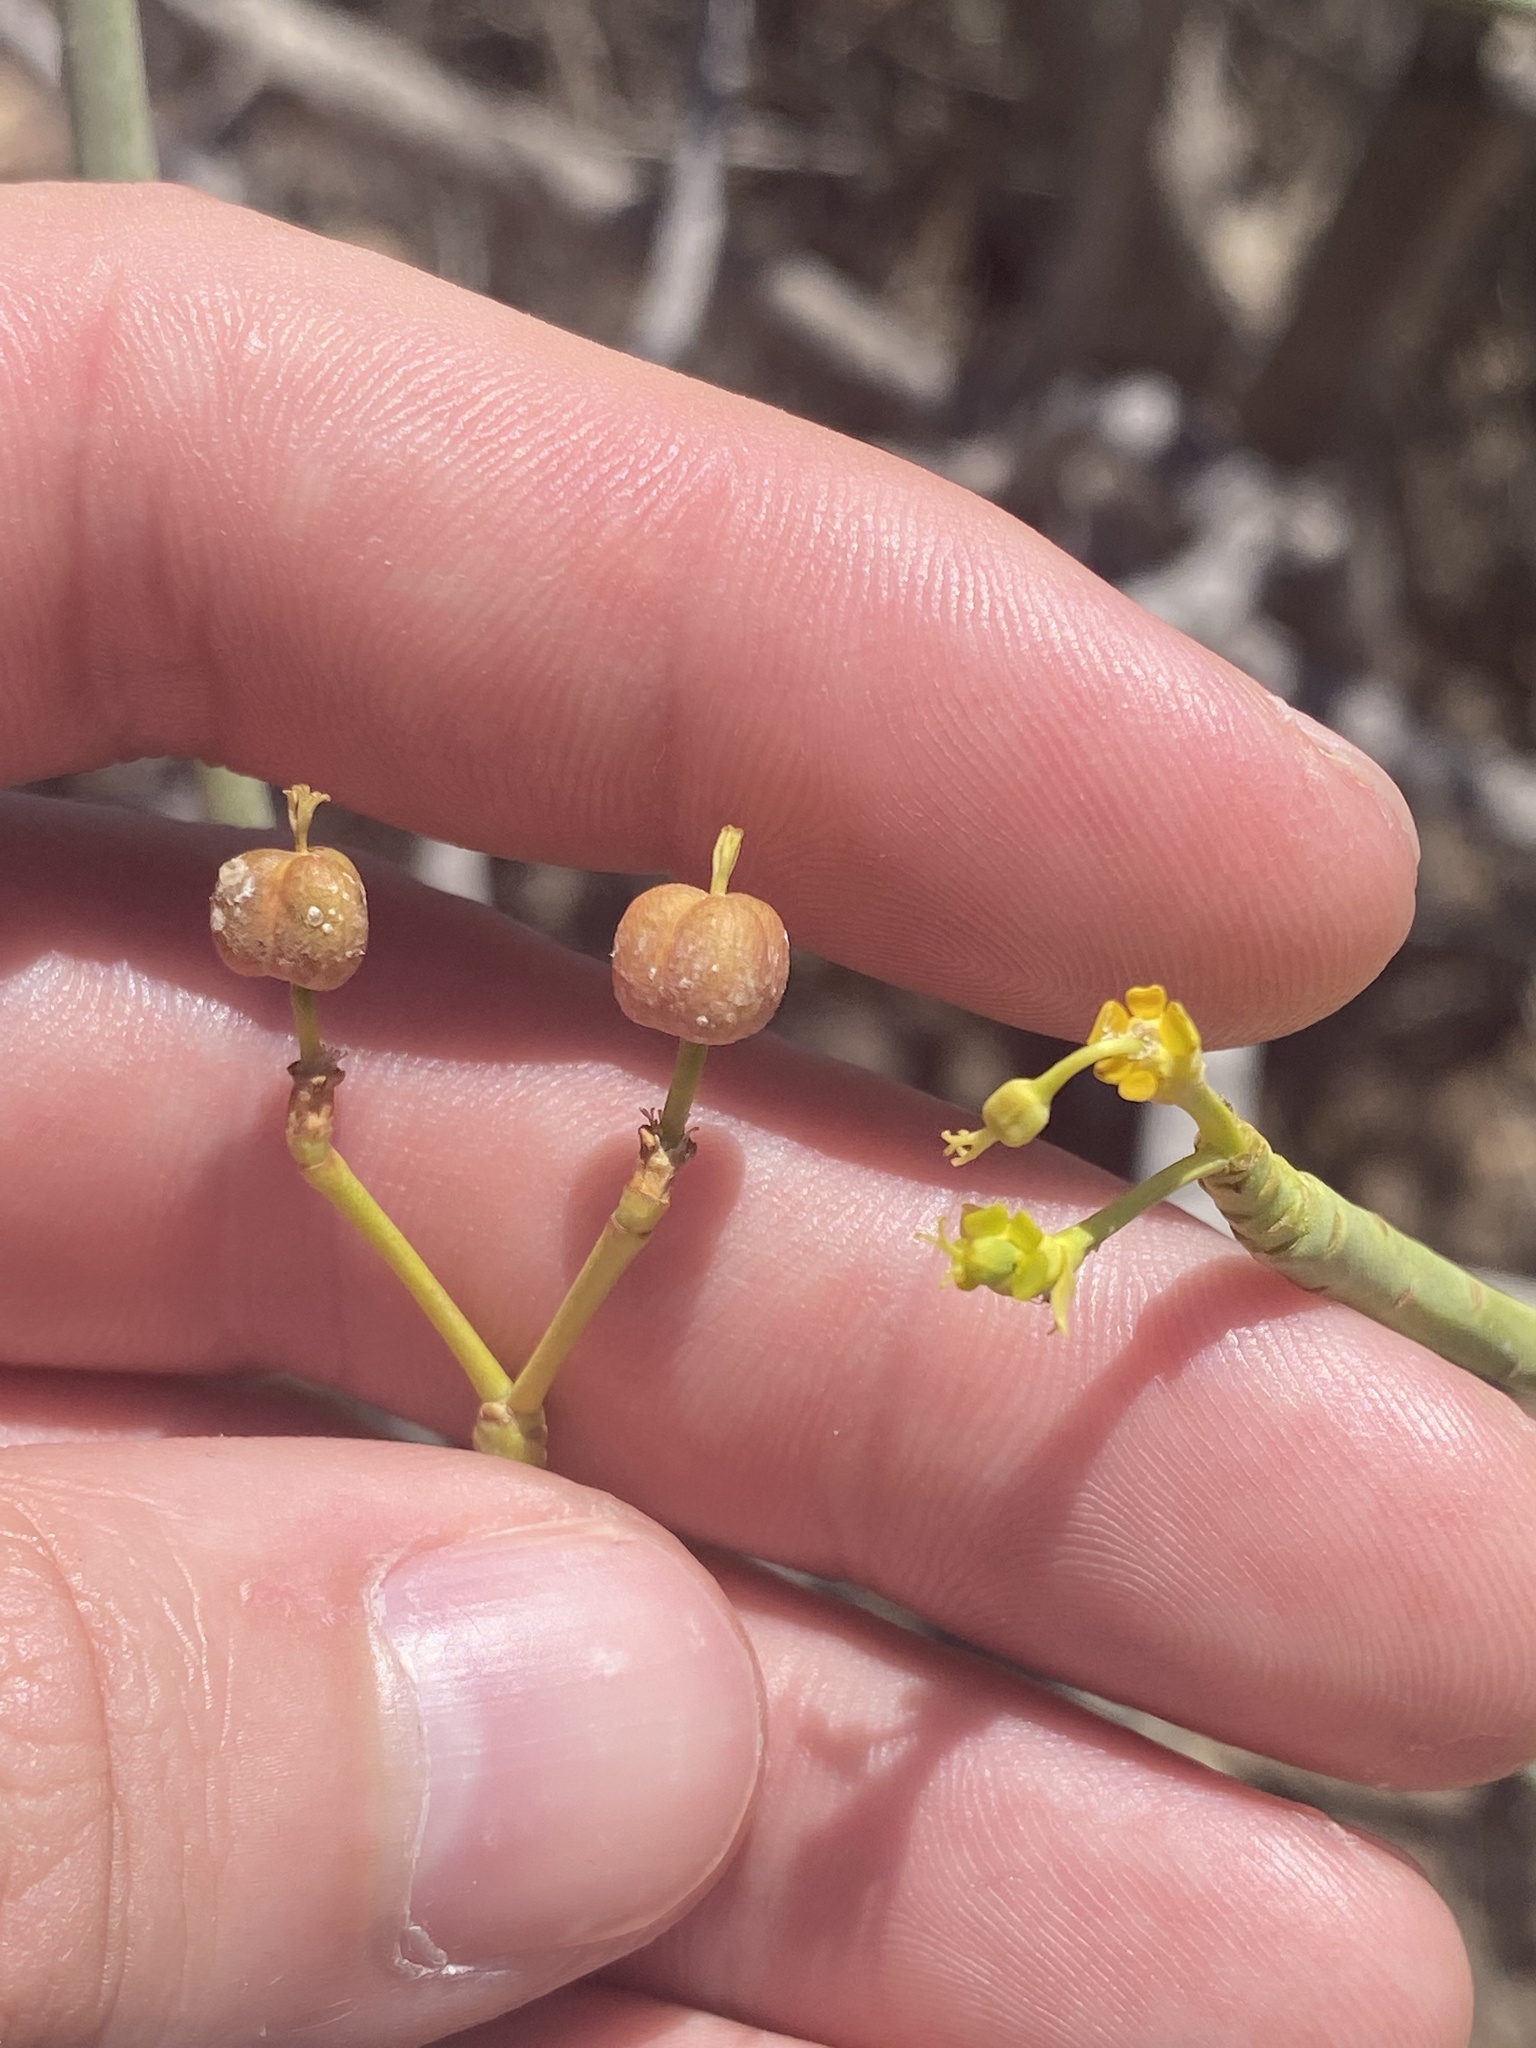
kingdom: Plantae
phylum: Tracheophyta
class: Magnoliopsida
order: Malpighiales
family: Euphorbiaceae
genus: Euphorbia
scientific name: Euphorbia lamarckii
